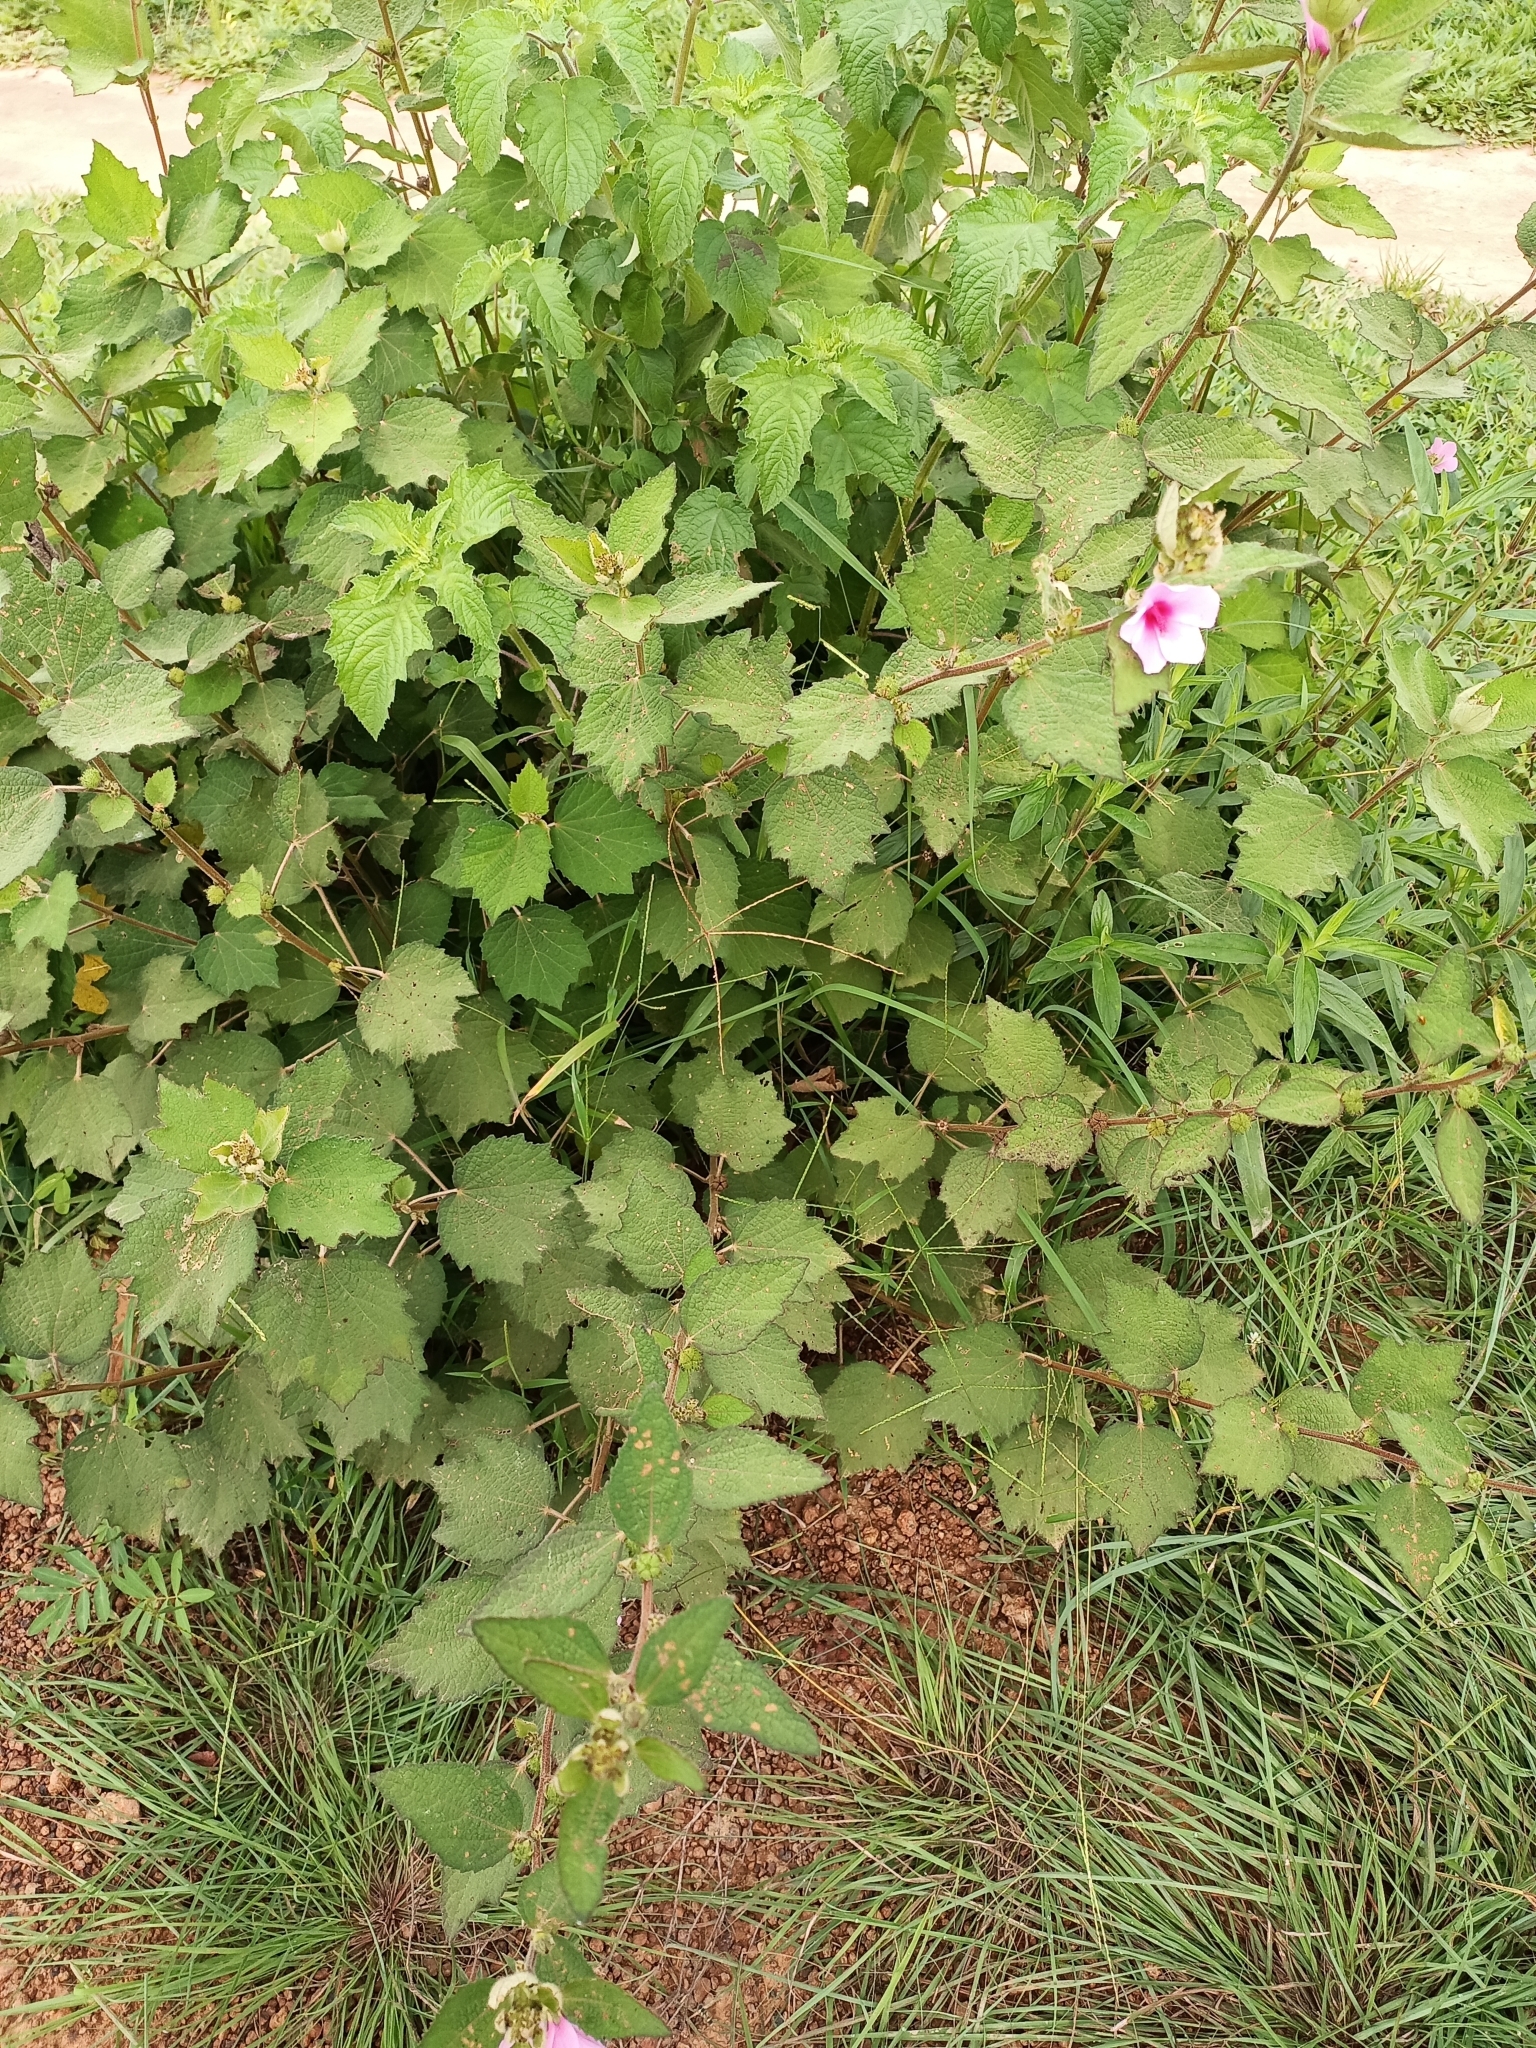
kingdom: Plantae
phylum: Tracheophyta
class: Magnoliopsida
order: Malvales
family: Malvaceae
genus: Urena
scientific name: Urena lobata
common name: Caesarweed
